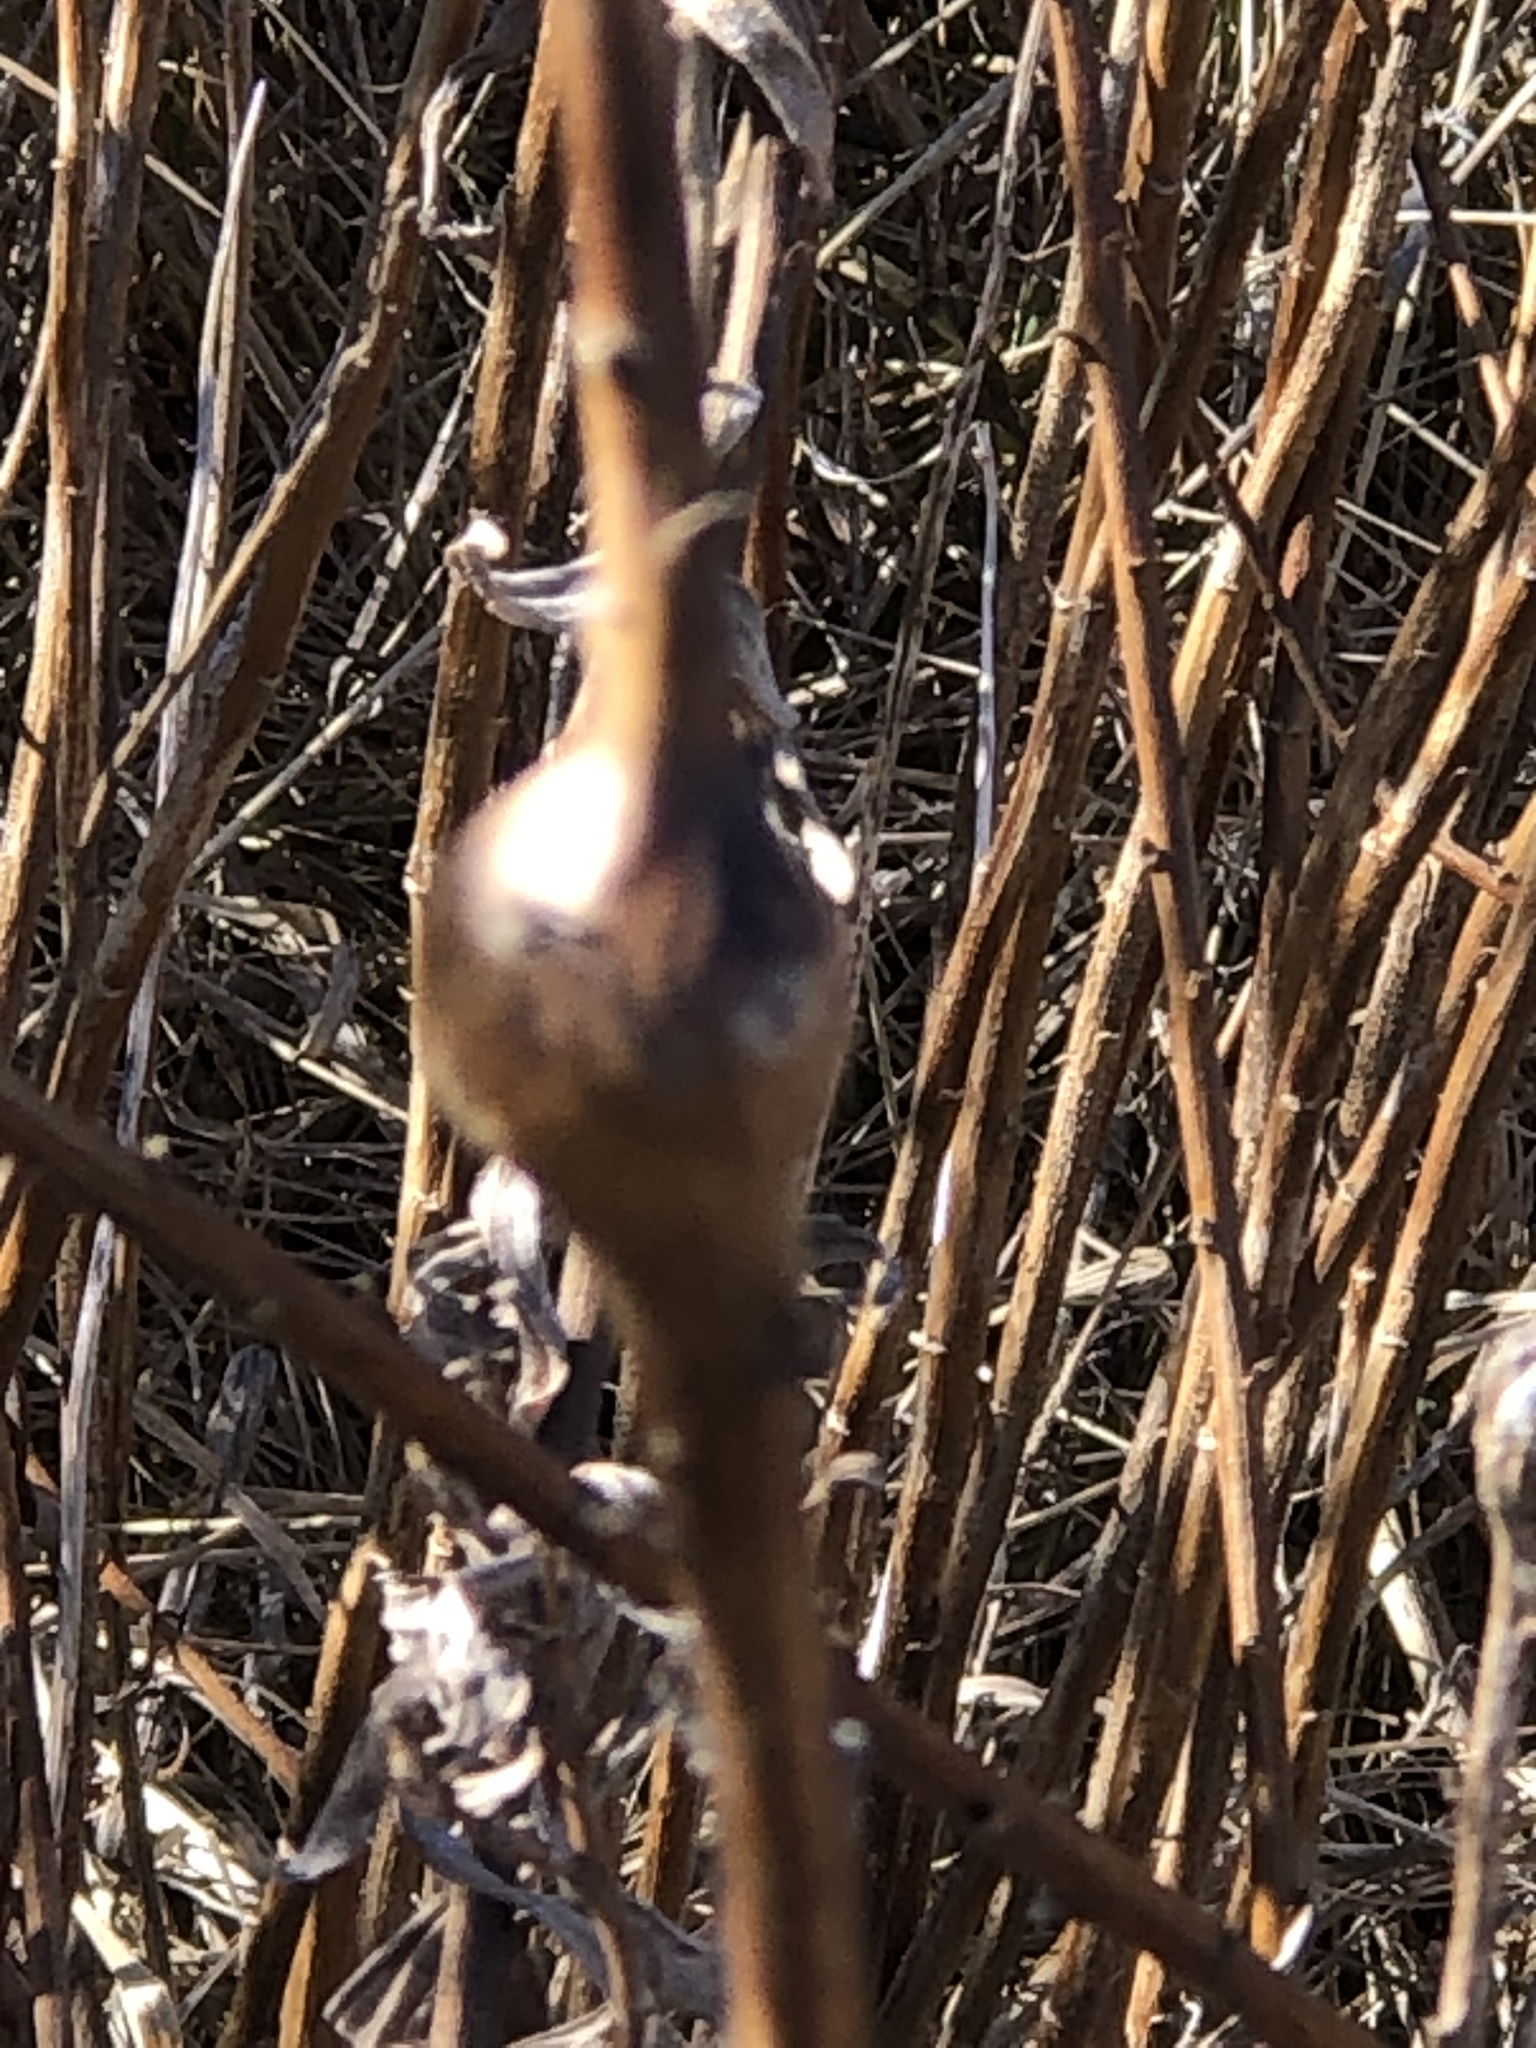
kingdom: Animalia
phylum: Arthropoda
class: Insecta
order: Diptera
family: Tephritidae
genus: Eurosta
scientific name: Eurosta solidaginis
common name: Goldenrod gall fly
